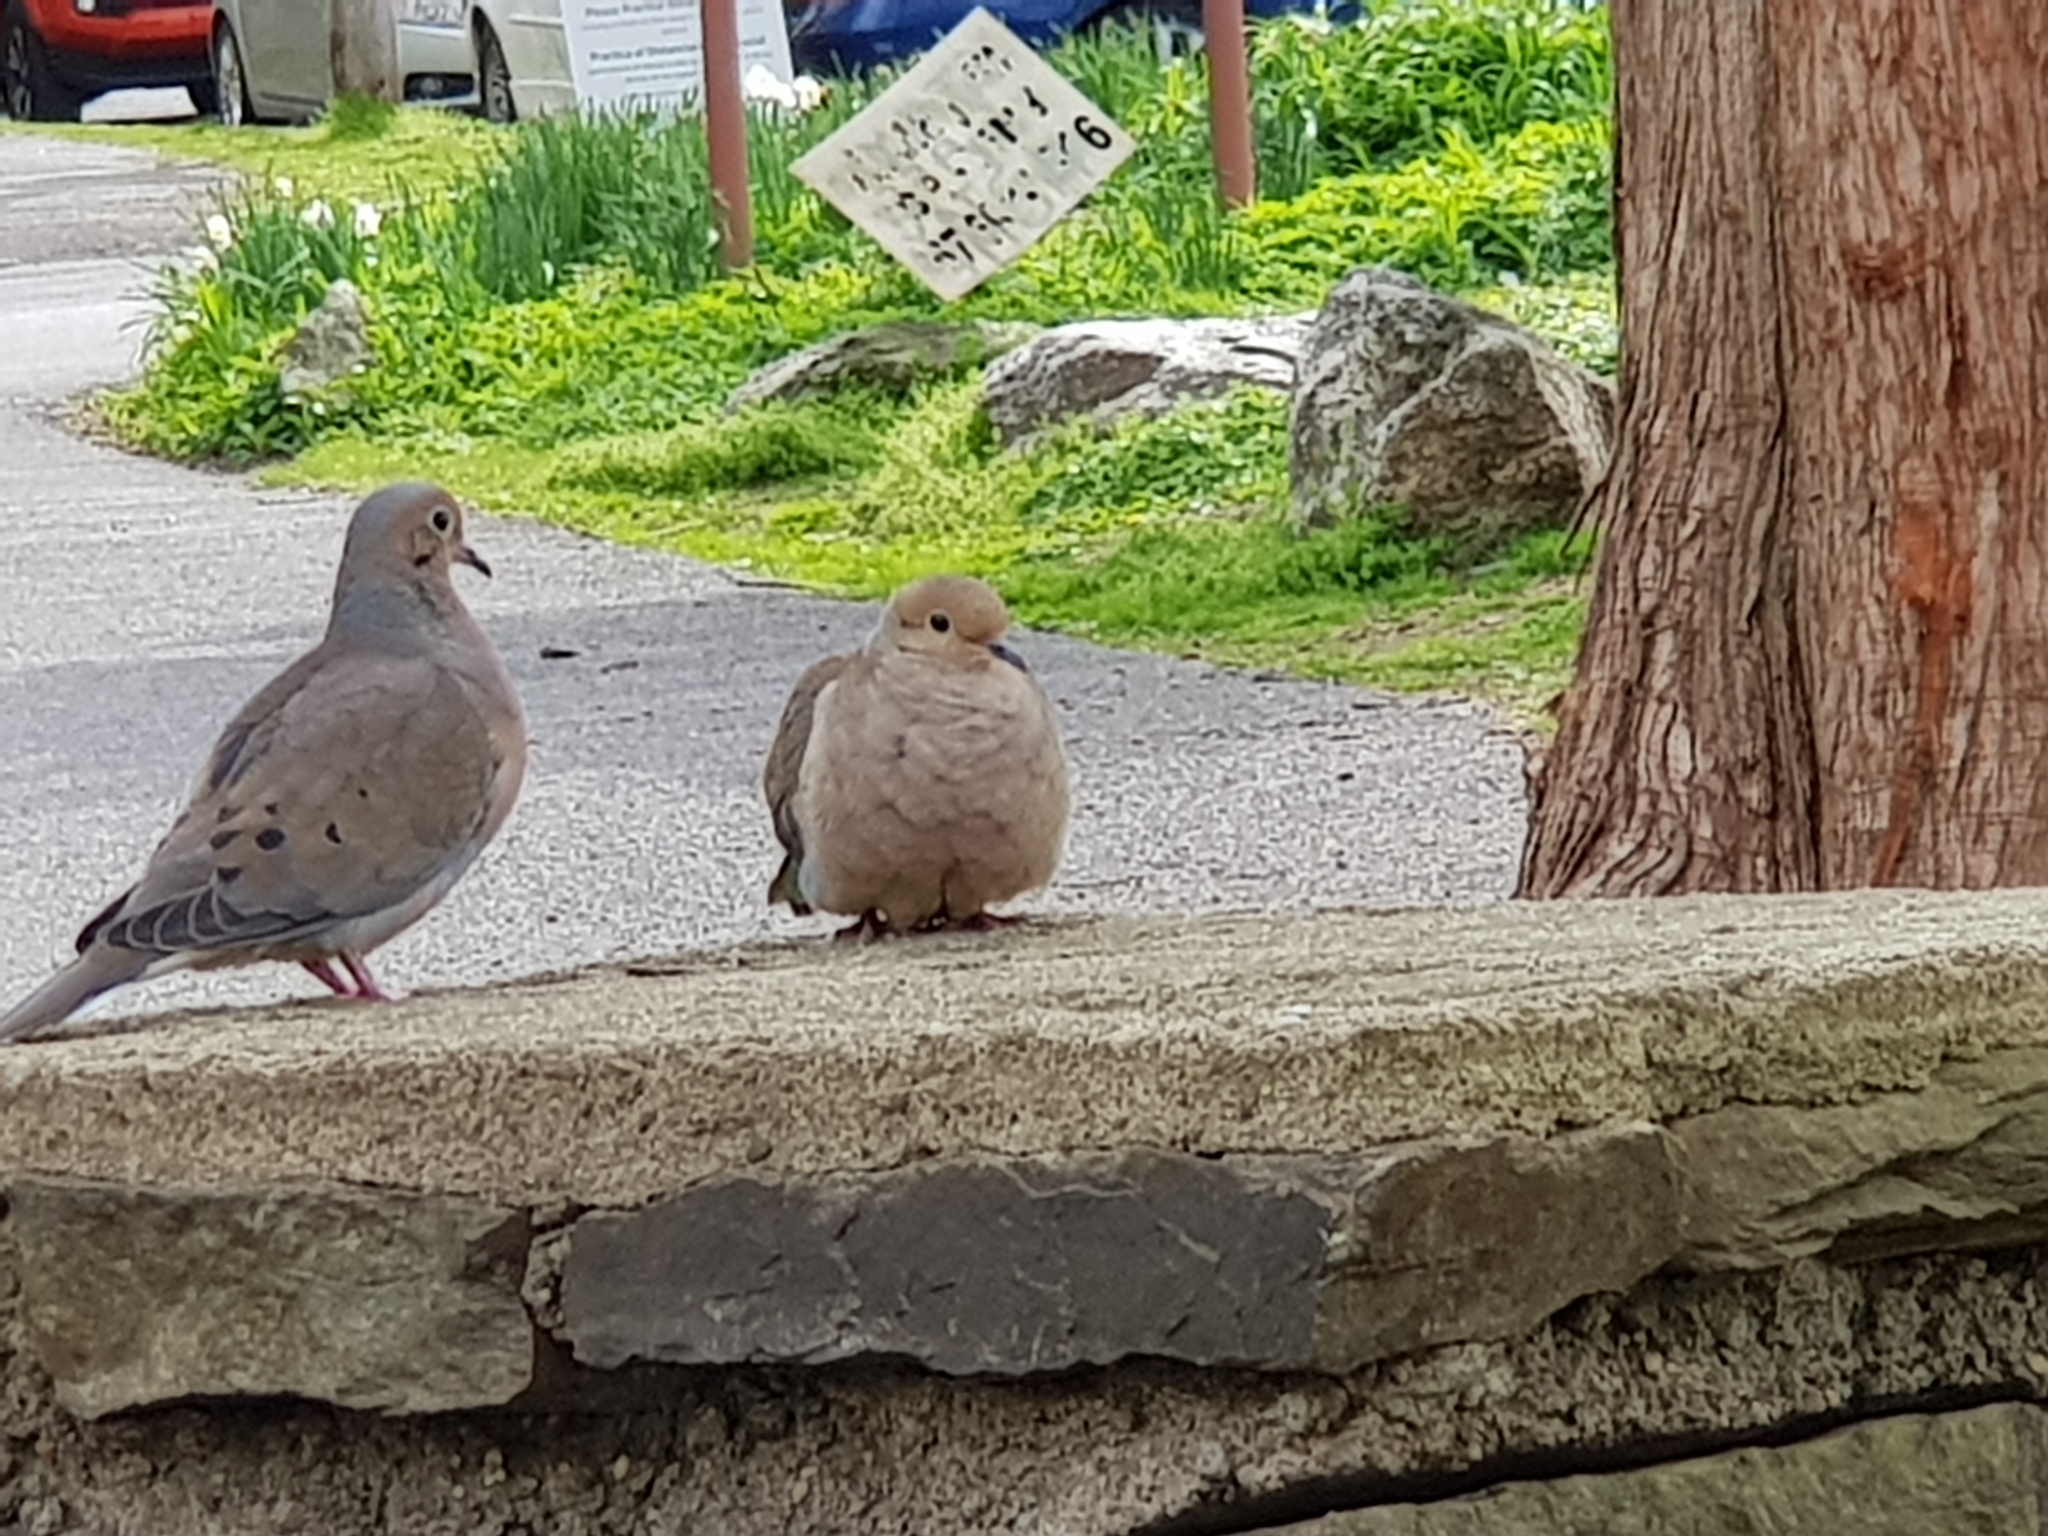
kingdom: Animalia
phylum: Chordata
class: Aves
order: Columbiformes
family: Columbidae
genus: Zenaida
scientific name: Zenaida macroura
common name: Mourning dove
